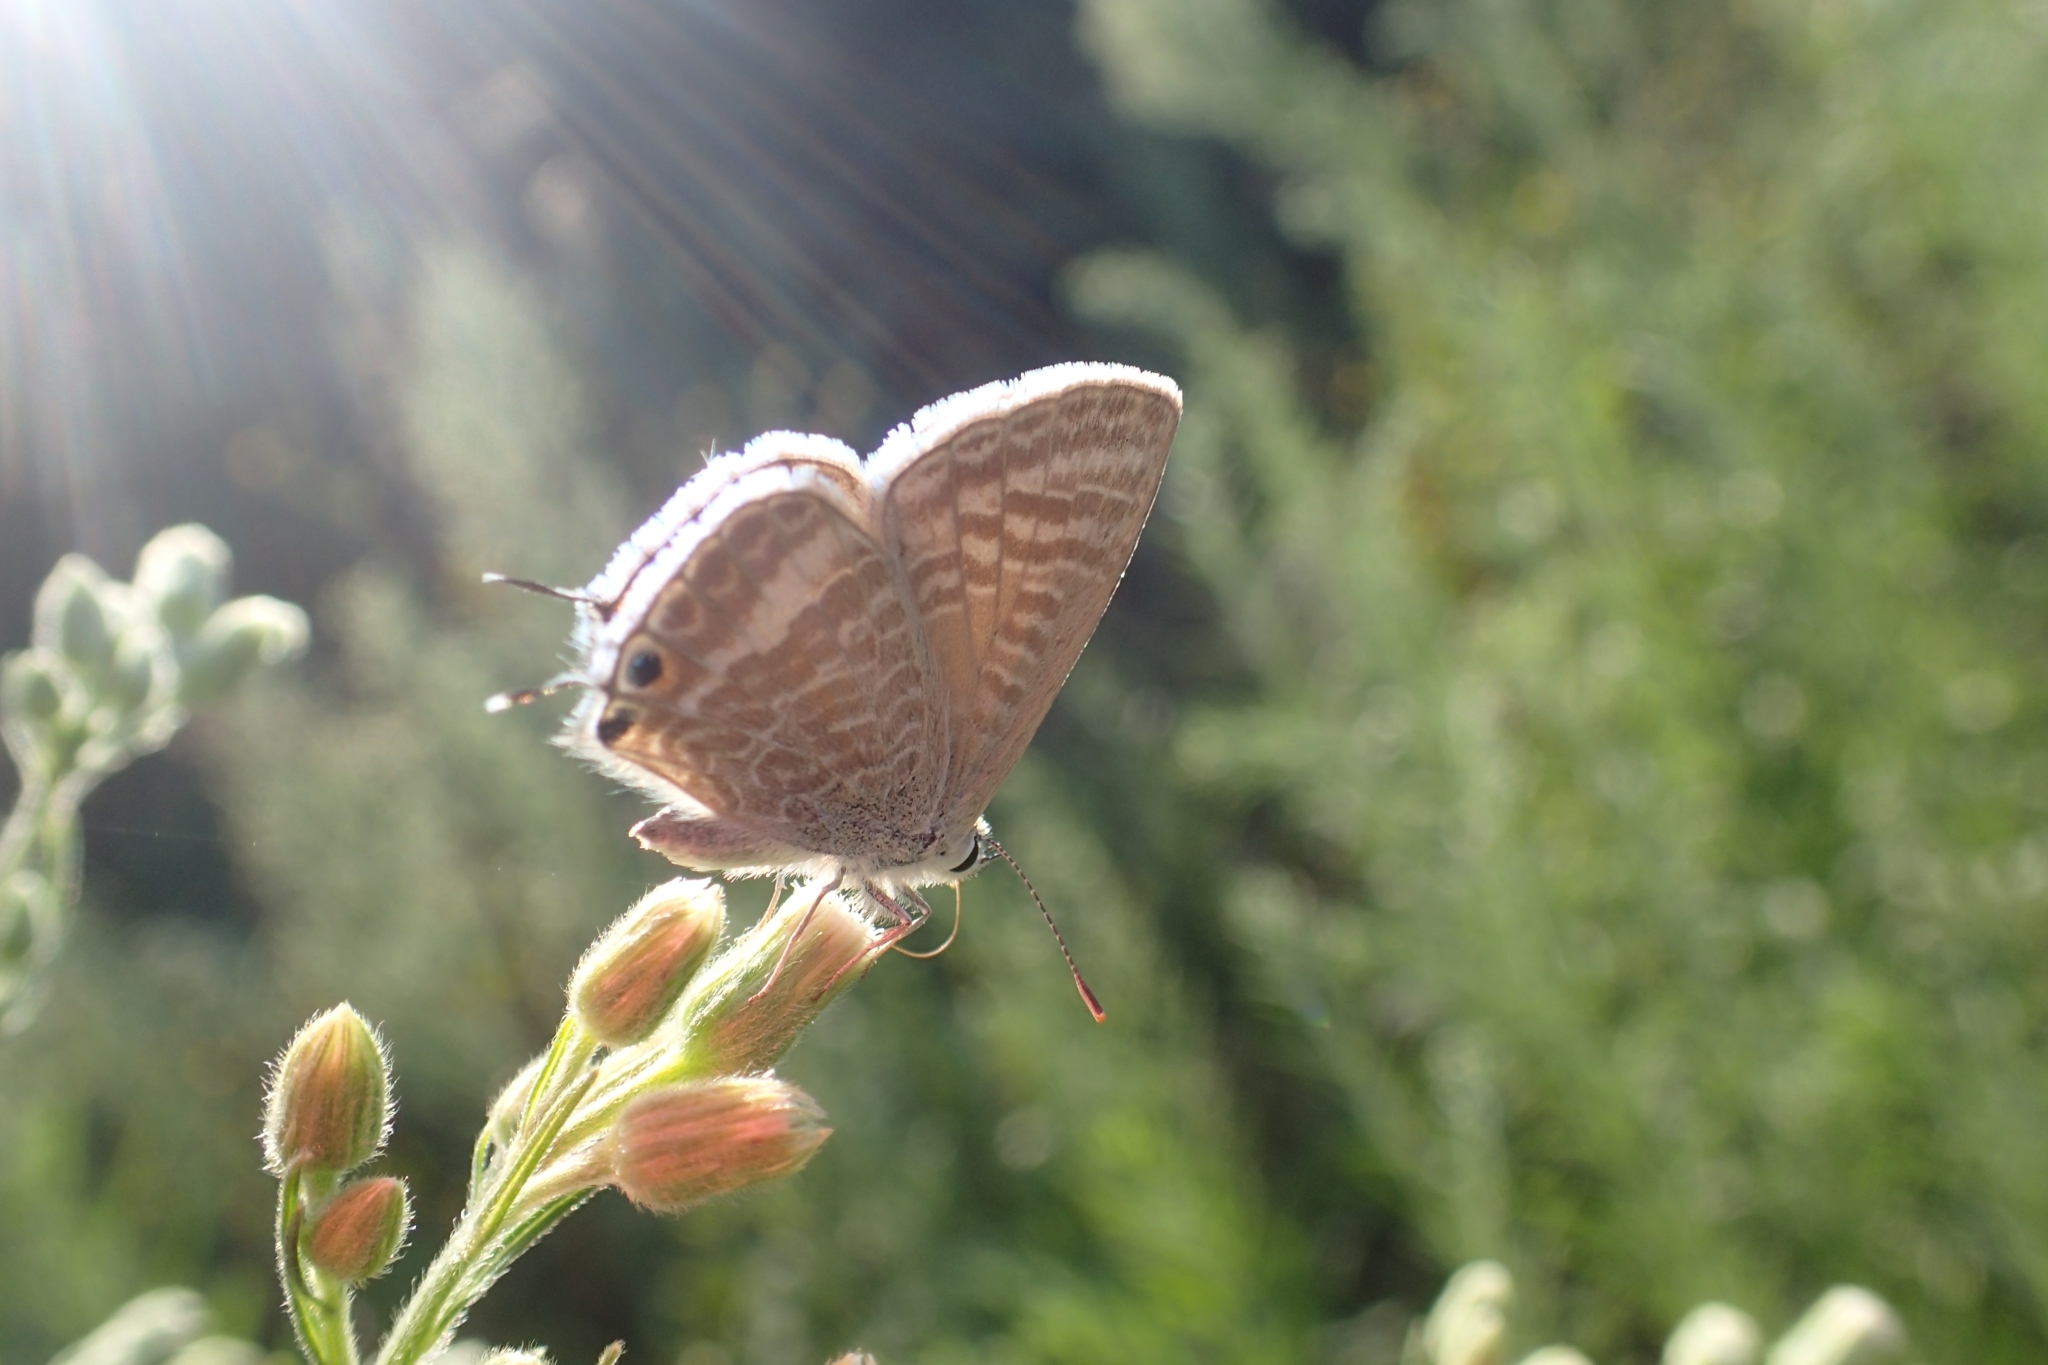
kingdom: Animalia
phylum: Arthropoda
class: Insecta
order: Lepidoptera
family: Lycaenidae
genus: Lampides
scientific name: Lampides boeticus
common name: Long-tailed blue
